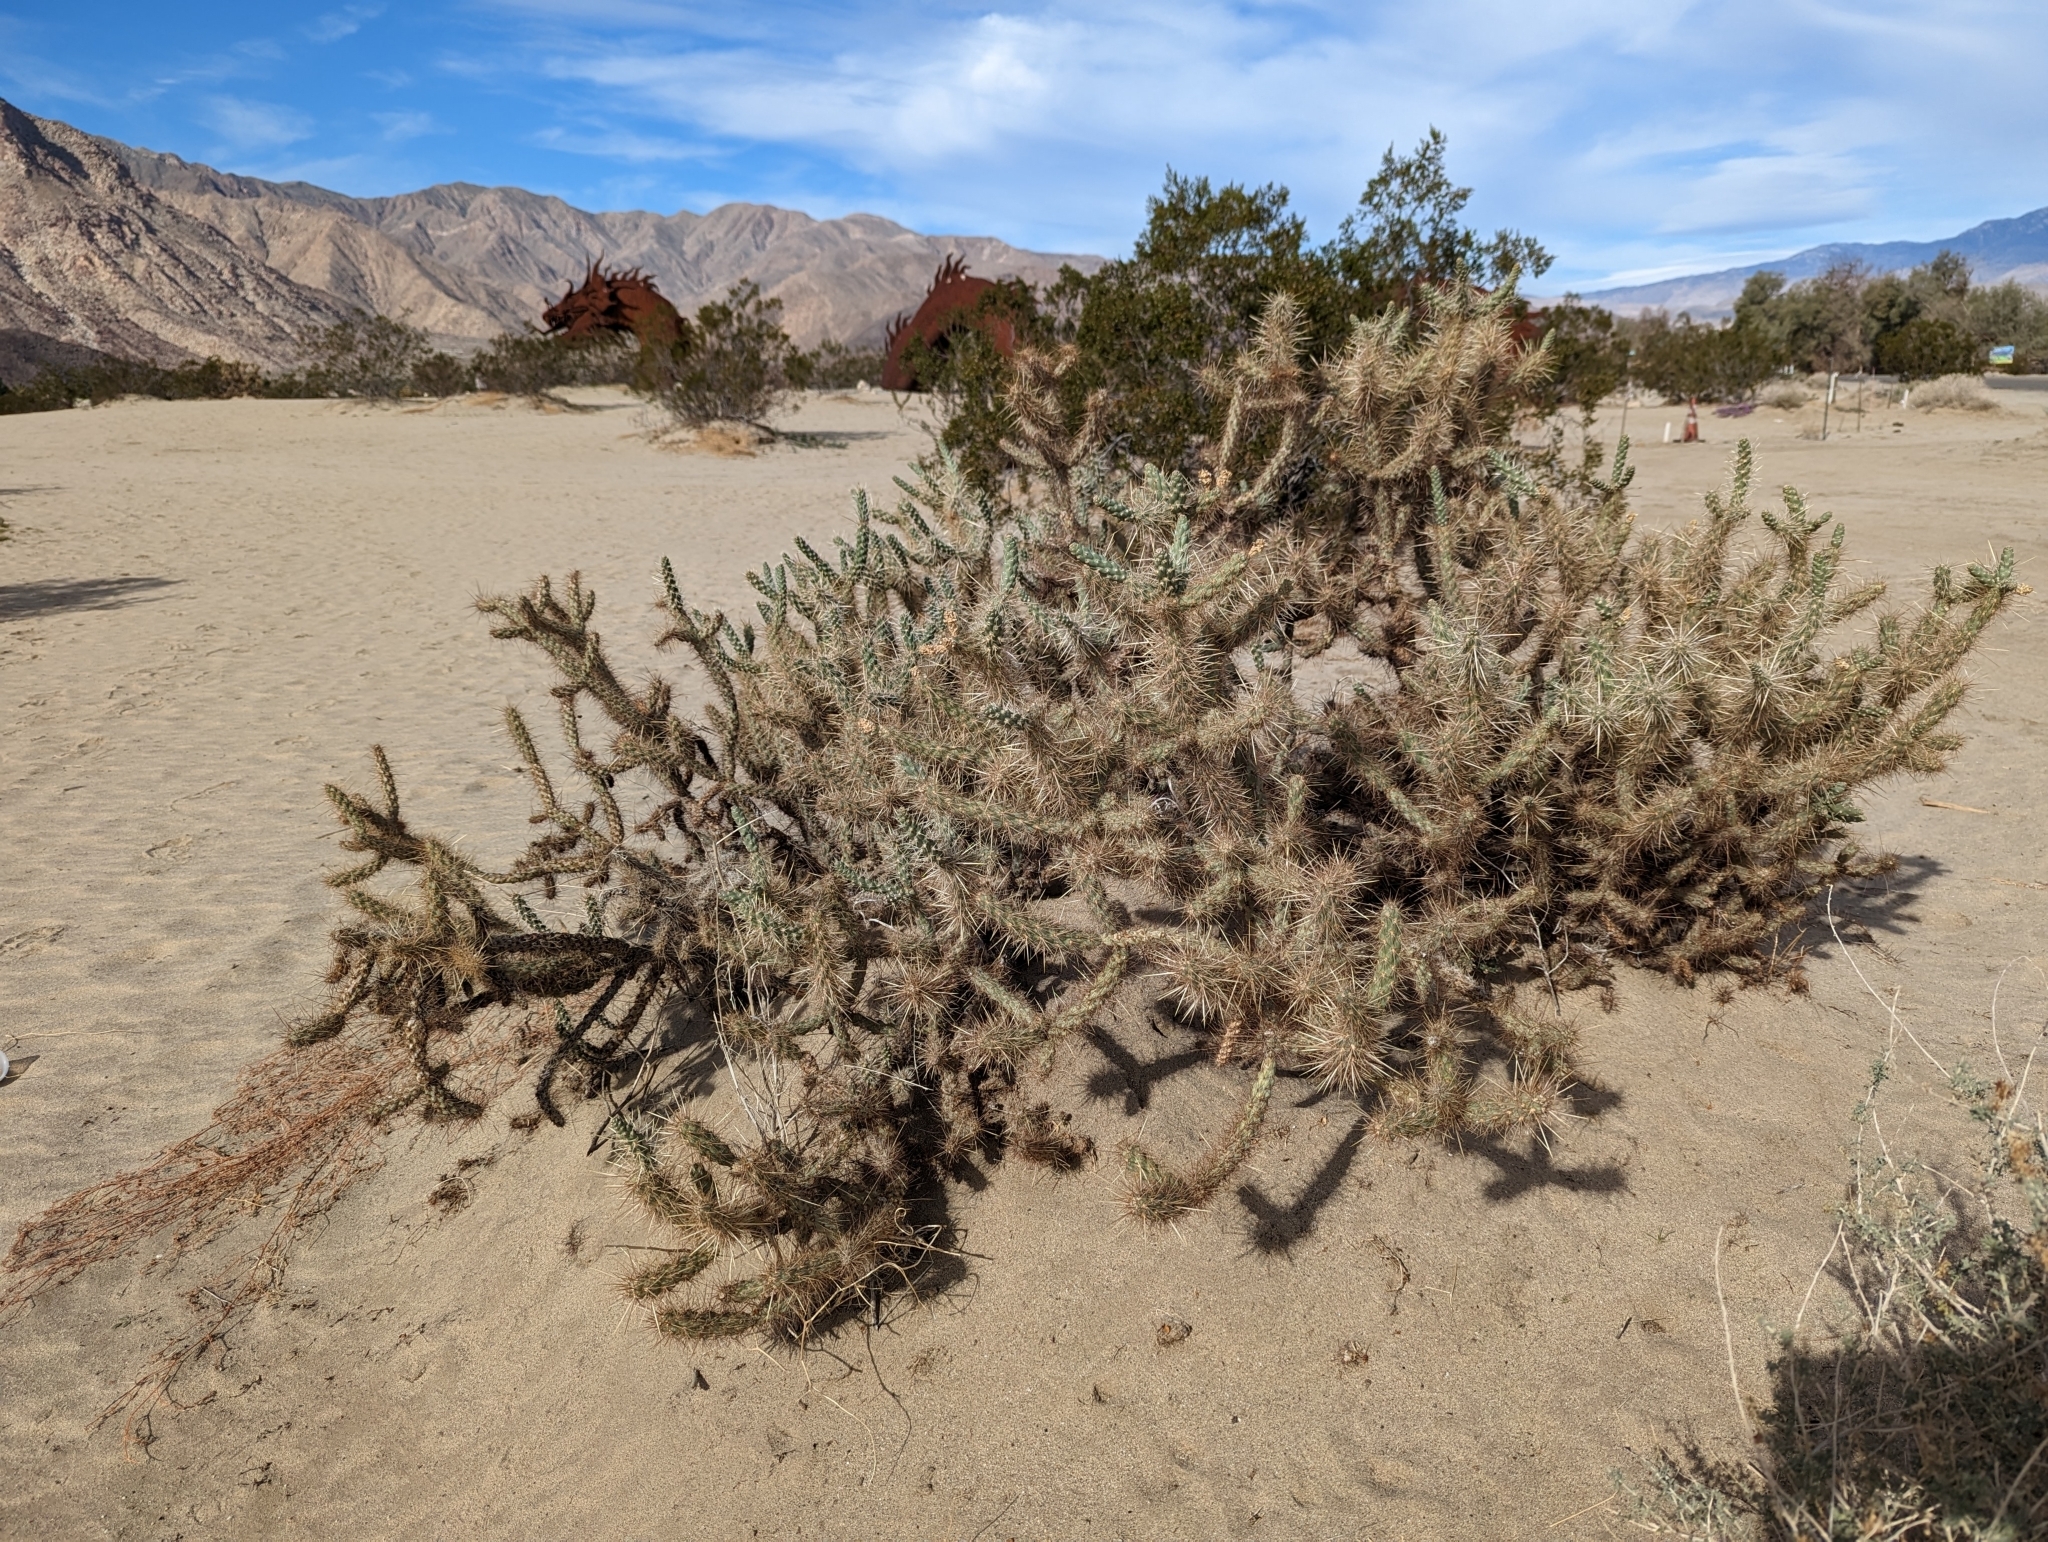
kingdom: Plantae
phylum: Tracheophyta
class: Magnoliopsida
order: Caryophyllales
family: Cactaceae
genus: Cylindropuntia
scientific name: Cylindropuntia ganderi
